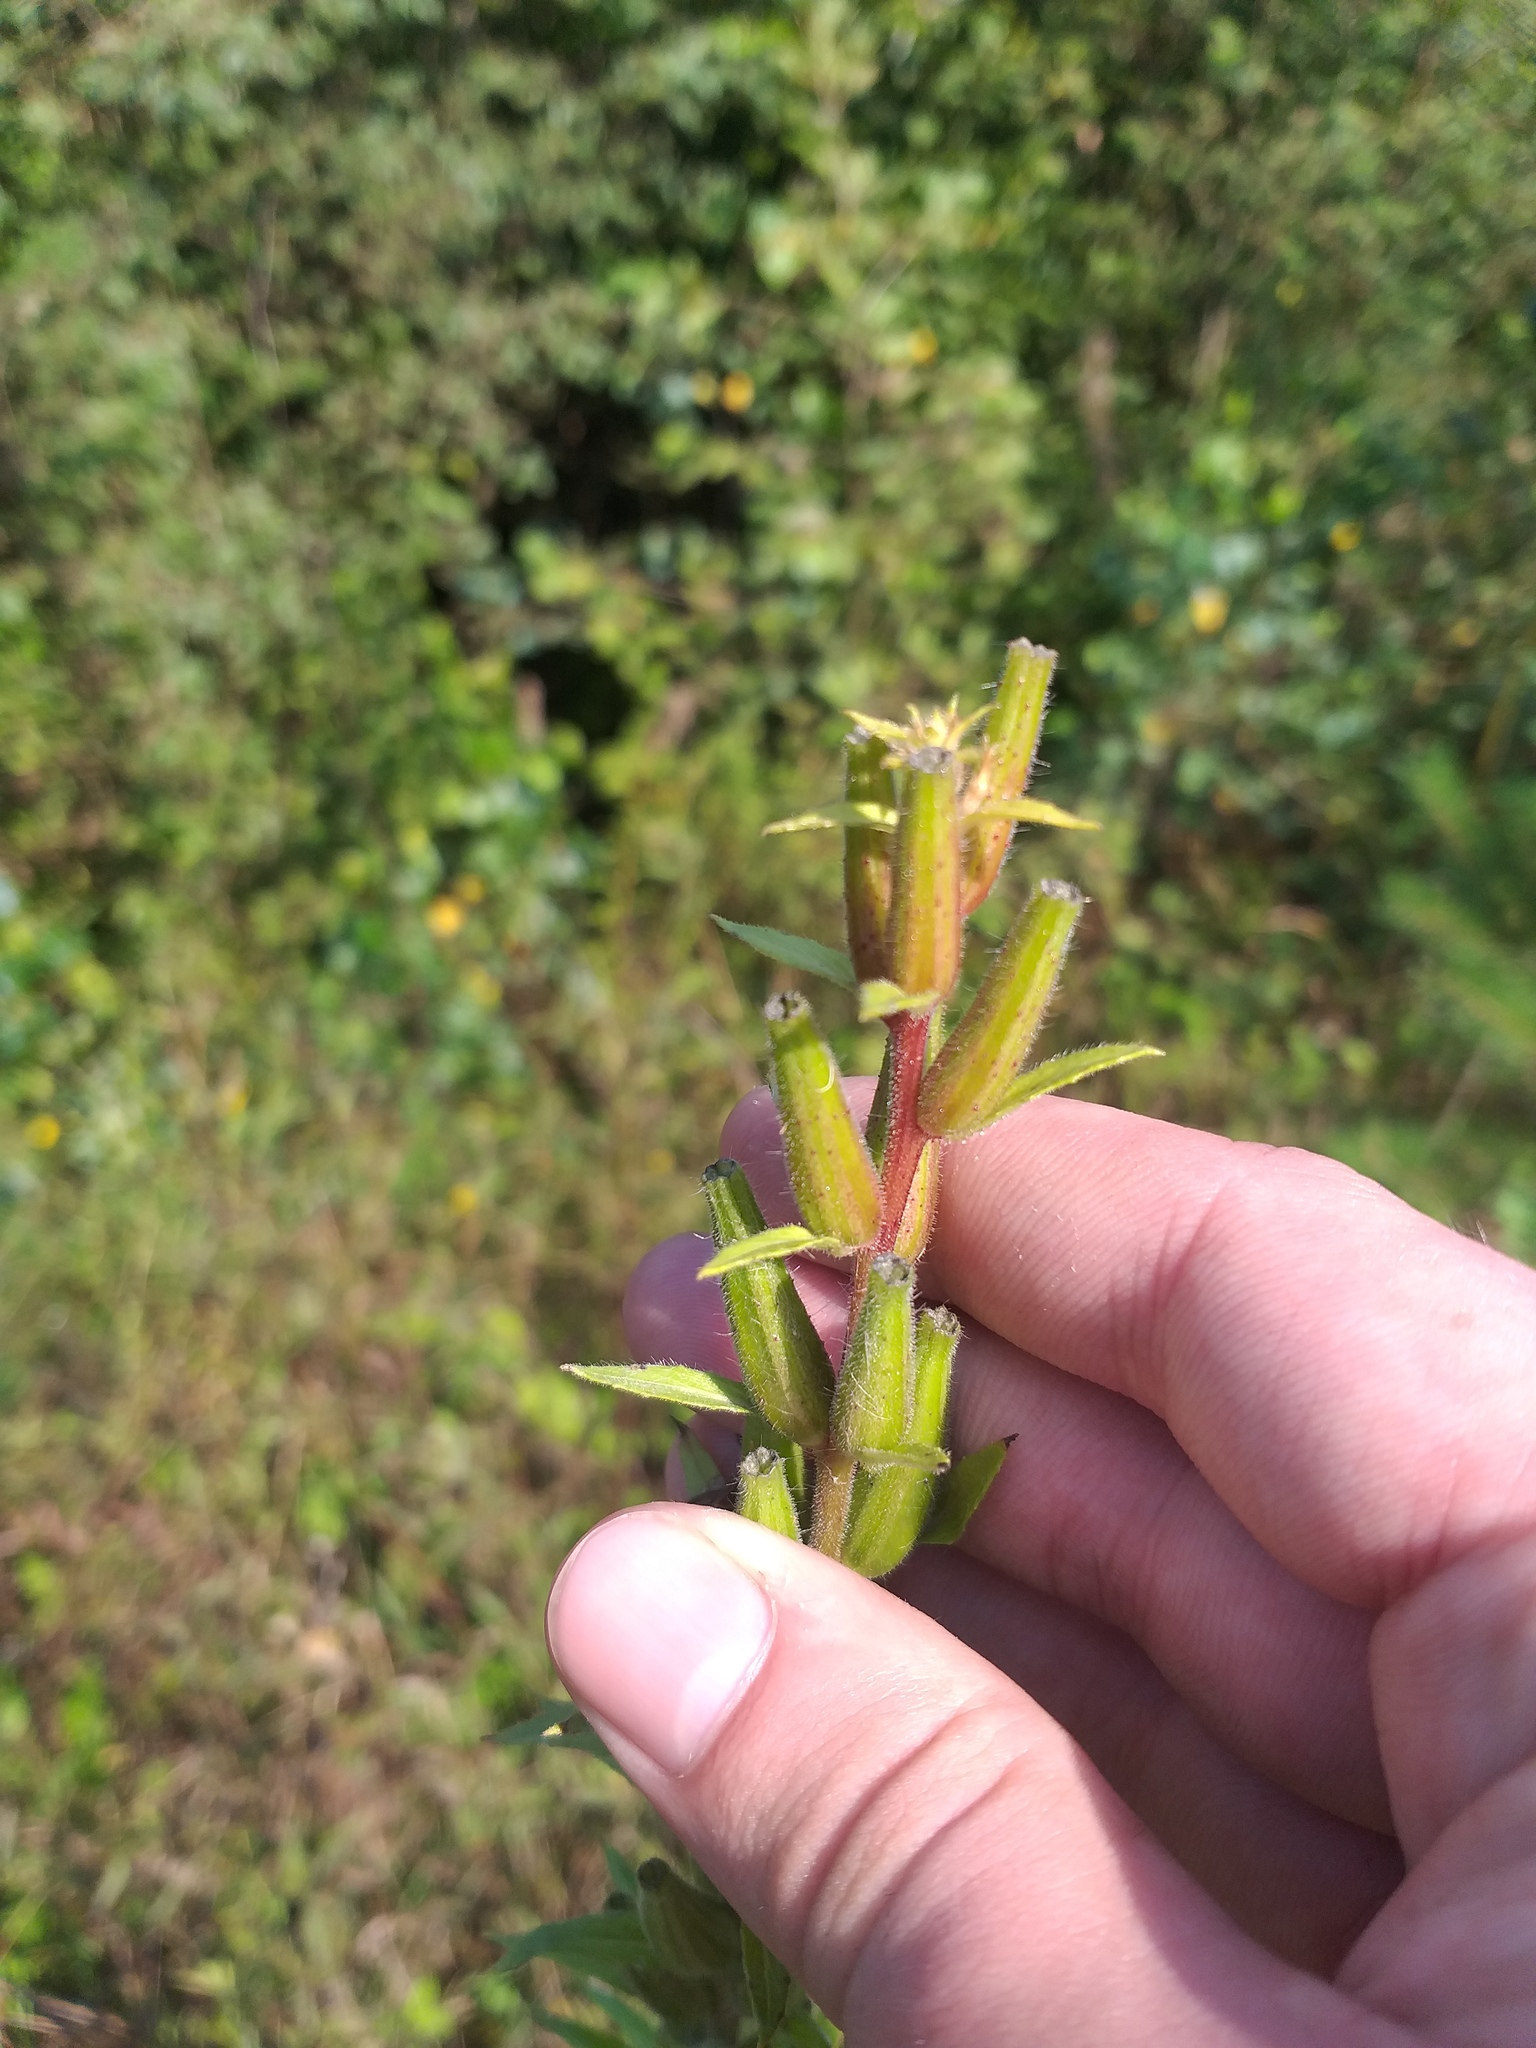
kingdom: Plantae
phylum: Tracheophyta
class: Magnoliopsida
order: Myrtales
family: Onagraceae
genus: Oenothera
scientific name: Oenothera rubricaulis
